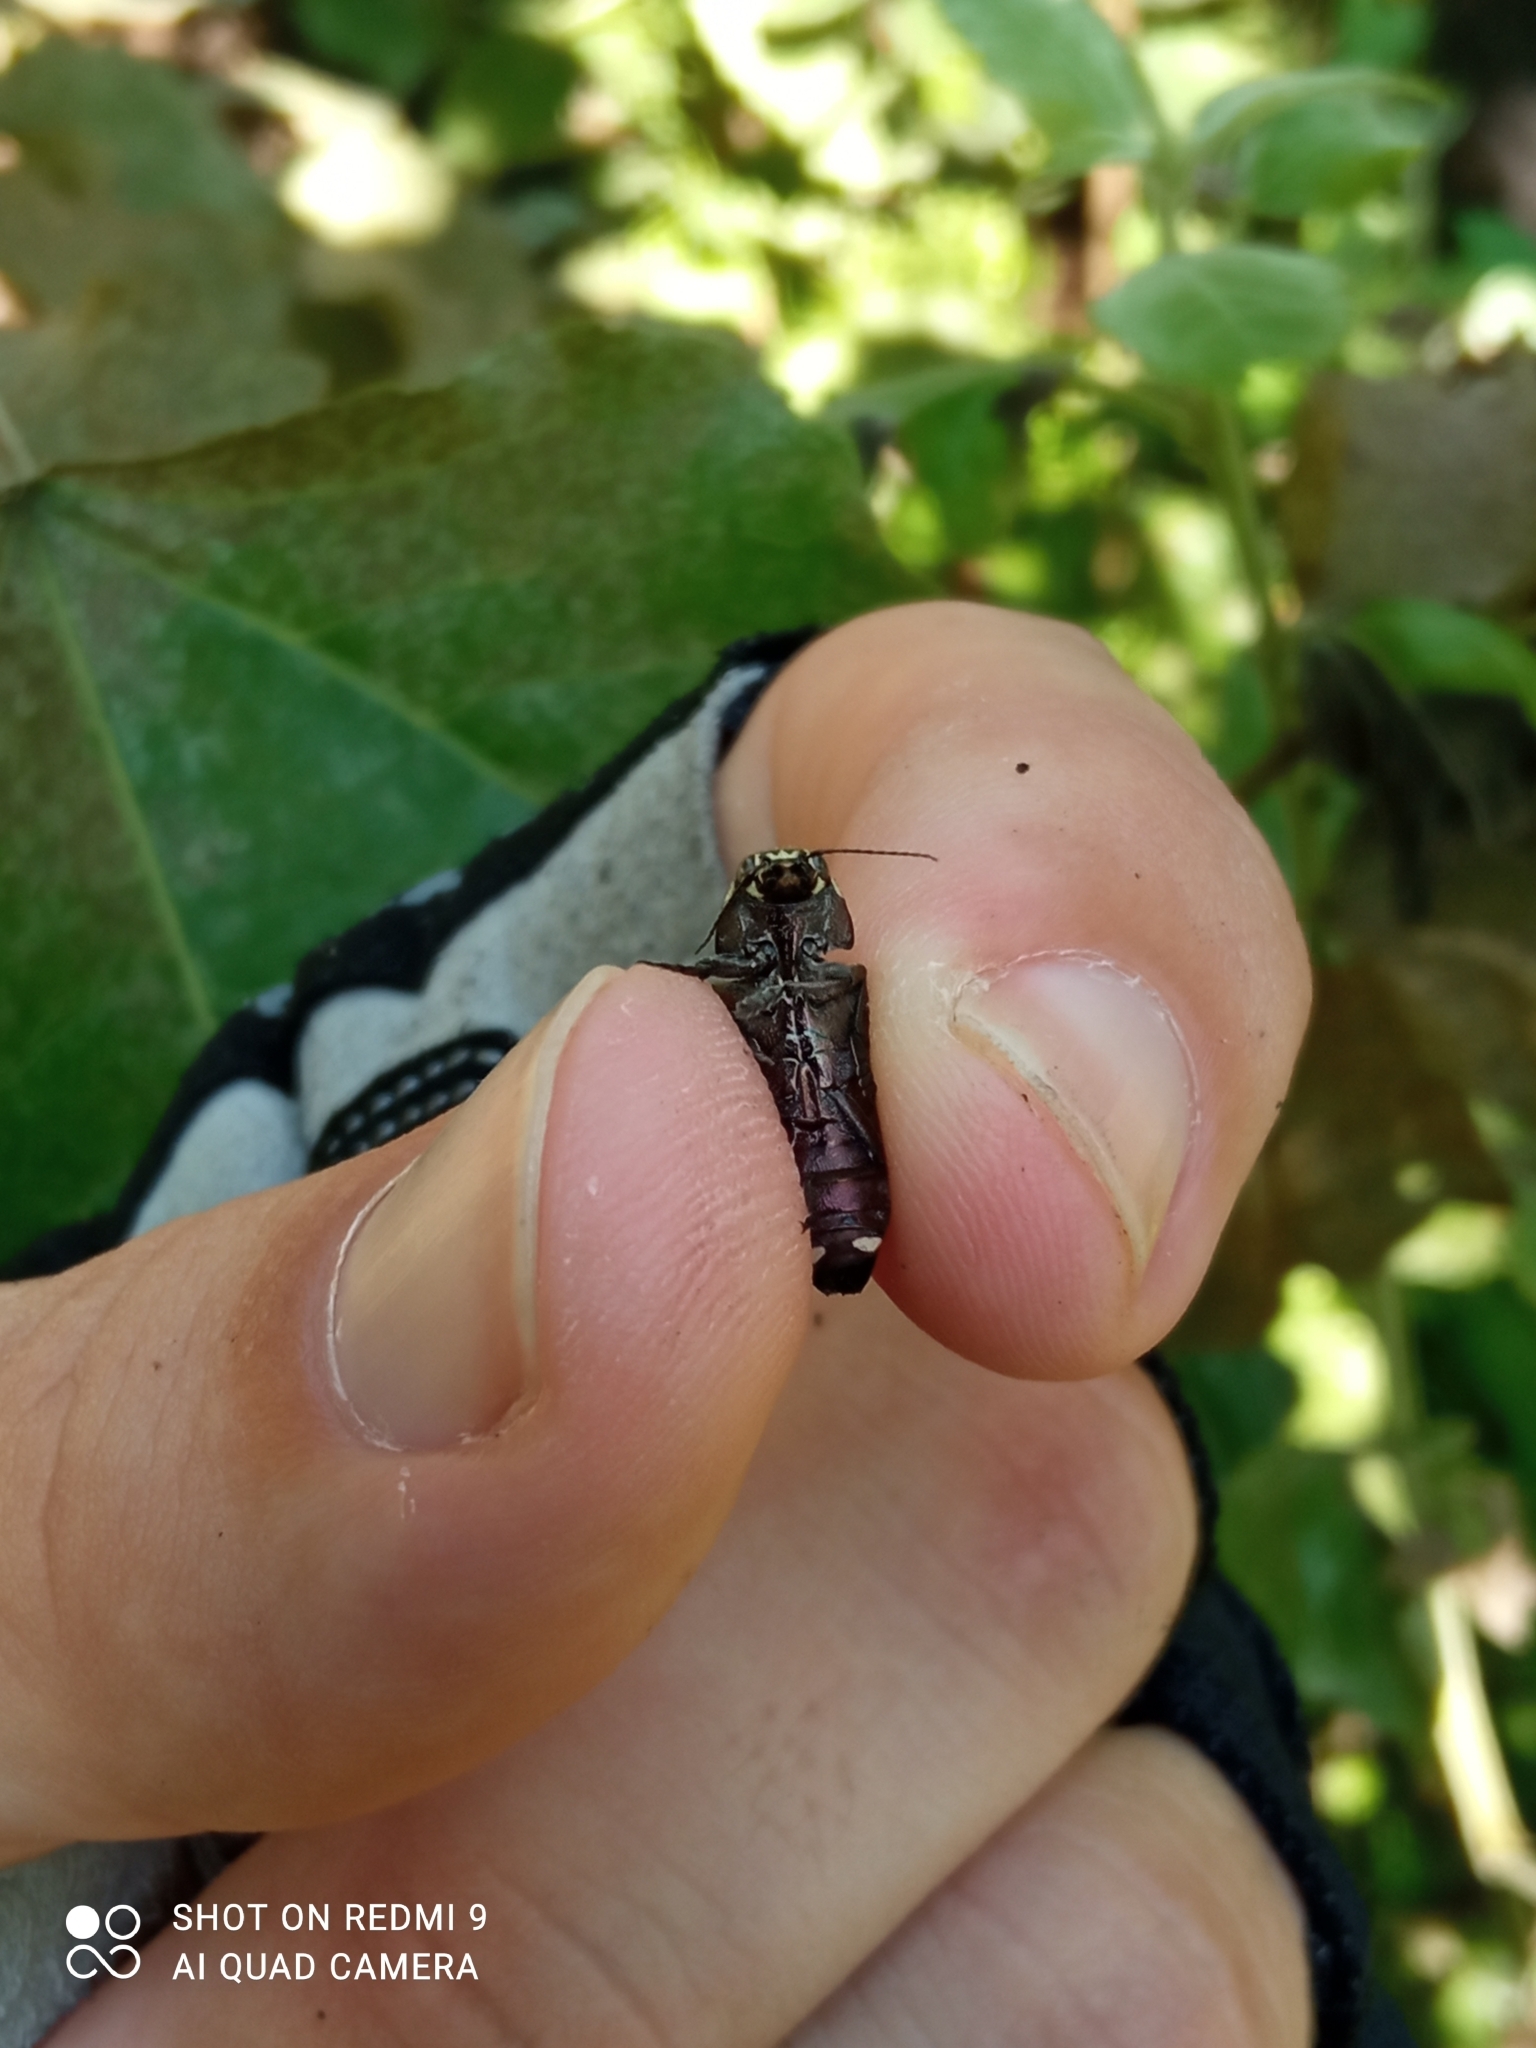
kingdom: Animalia
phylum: Arthropoda
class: Insecta
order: Coleoptera
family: Buprestidae
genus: Buprestis
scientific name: Buprestis haemorrhoidalis
